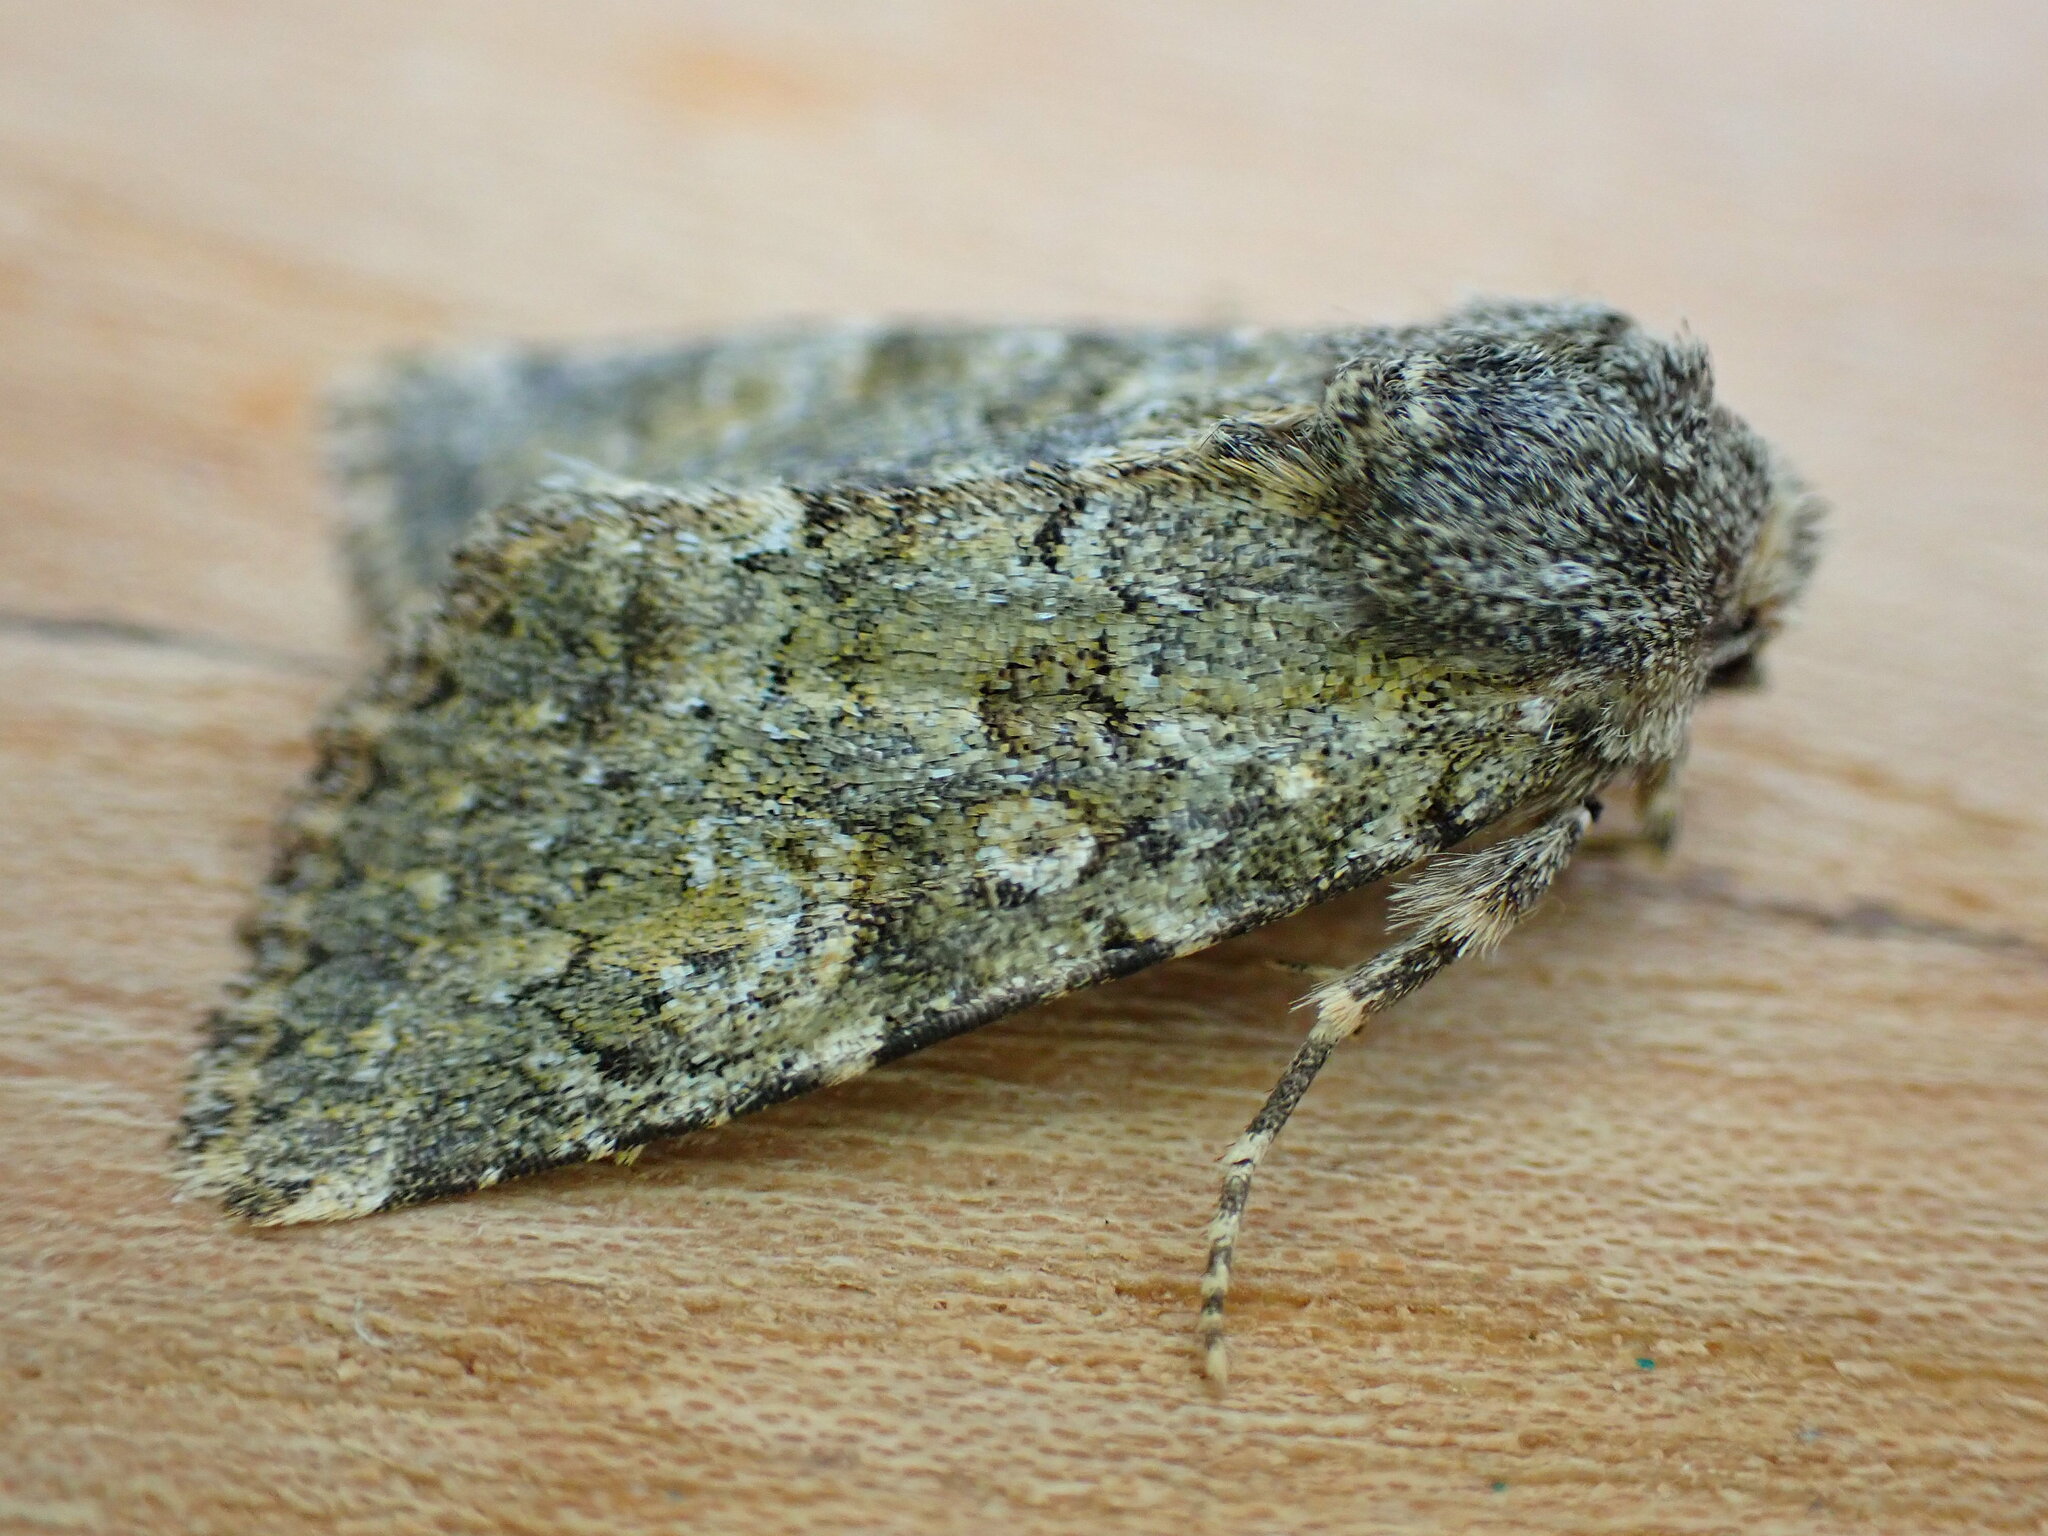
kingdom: Animalia
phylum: Arthropoda
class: Insecta
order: Lepidoptera
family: Noctuidae
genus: Polymixis
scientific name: Polymixis lichenea
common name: Feathered ranunculus
